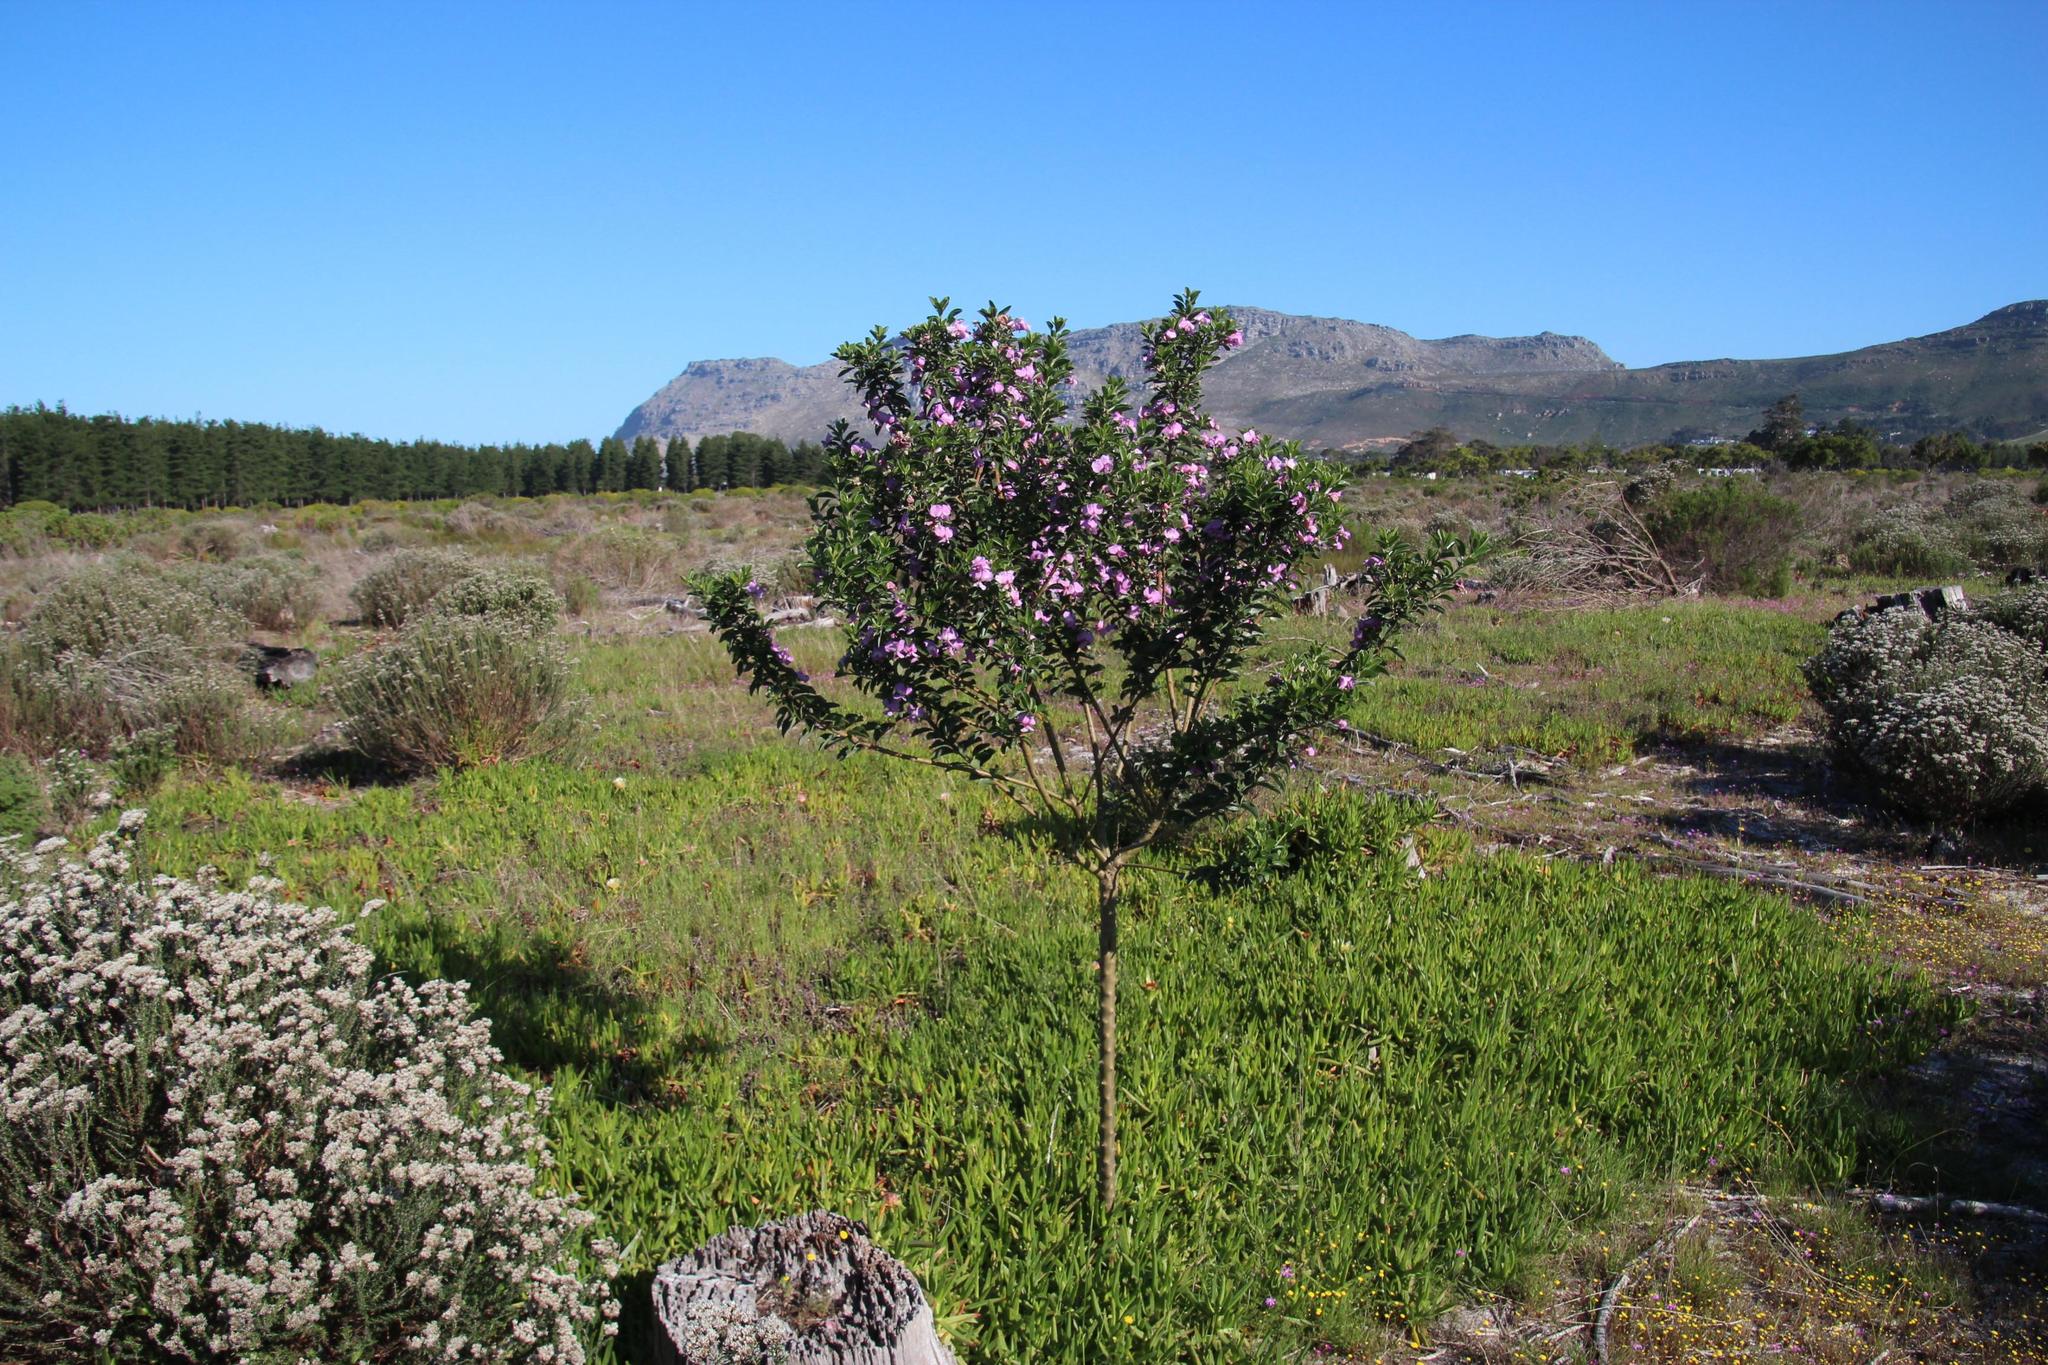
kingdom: Plantae
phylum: Tracheophyta
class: Magnoliopsida
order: Fabales
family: Fabaceae
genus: Podalyria
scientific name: Podalyria calyptrata
